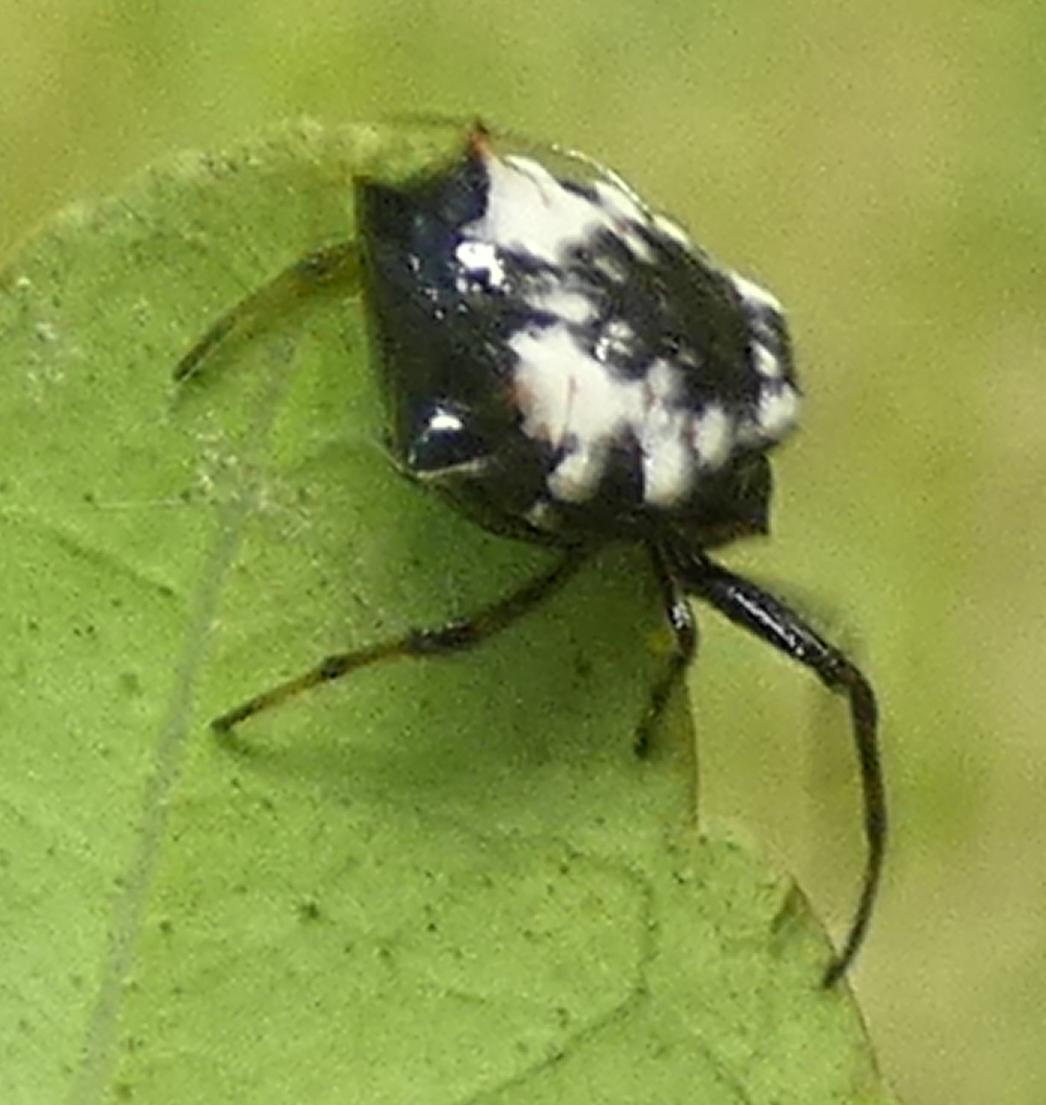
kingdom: Animalia
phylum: Arthropoda
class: Arachnida
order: Araneae
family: Araneidae
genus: Micrathena
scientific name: Micrathena patruelis
